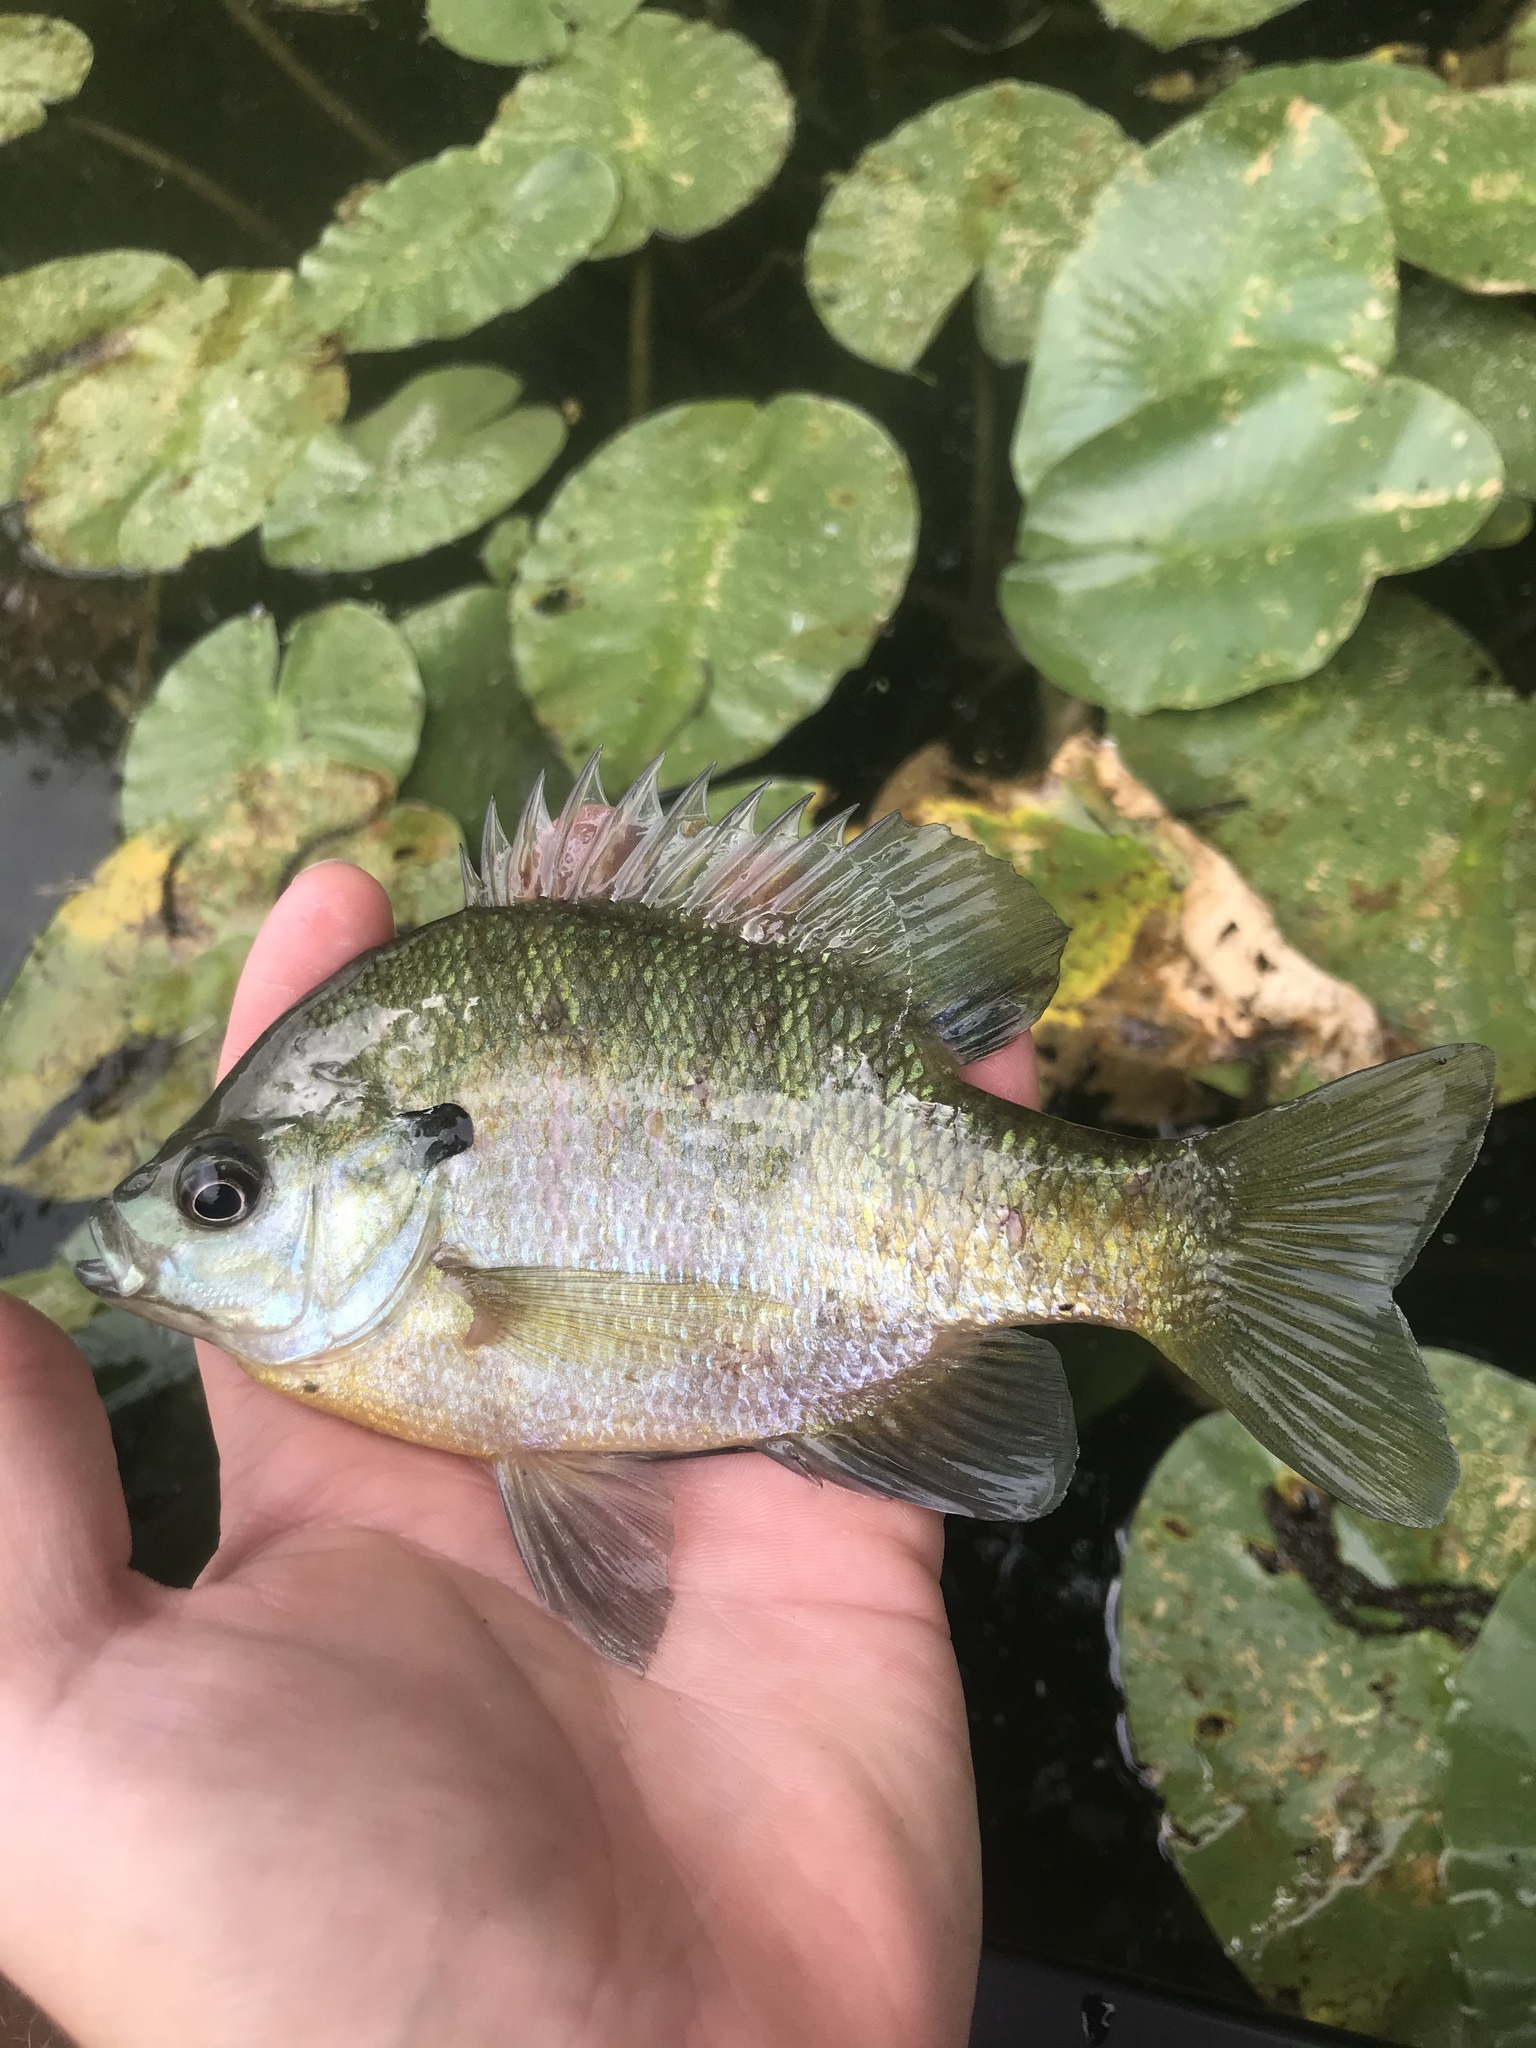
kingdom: Animalia
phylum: Chordata
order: Perciformes
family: Centrarchidae
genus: Lepomis
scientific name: Lepomis macrochirus
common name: Bluegill
